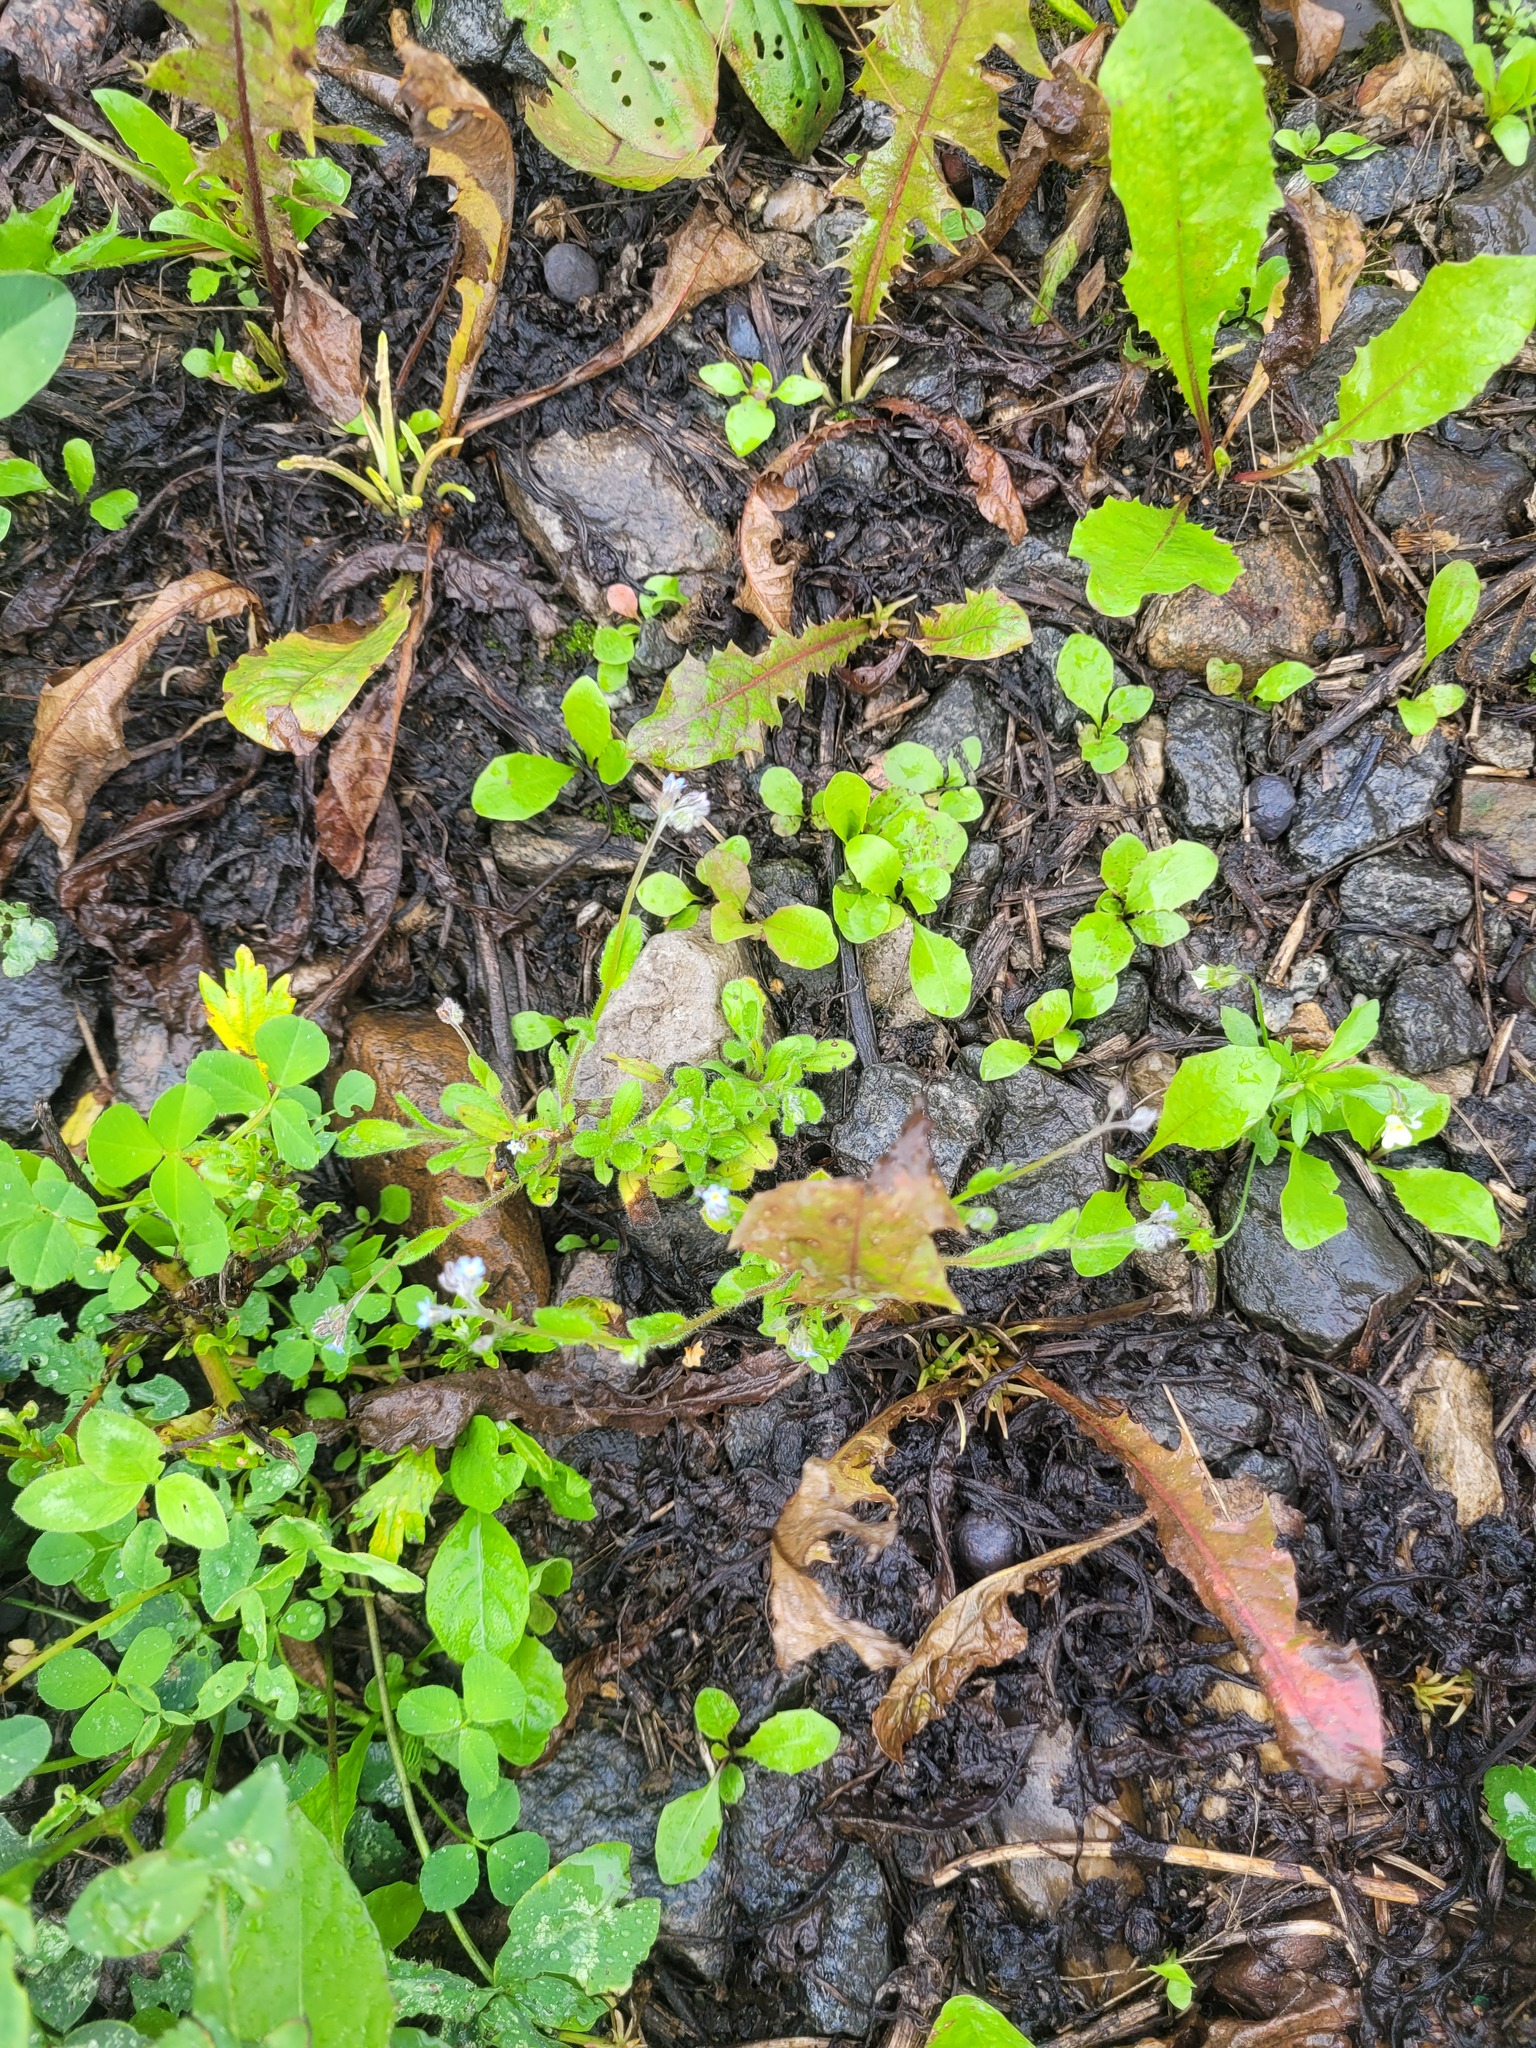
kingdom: Plantae
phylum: Tracheophyta
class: Magnoliopsida
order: Boraginales
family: Boraginaceae
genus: Myosotis
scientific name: Myosotis arvensis
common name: Field forget-me-not
